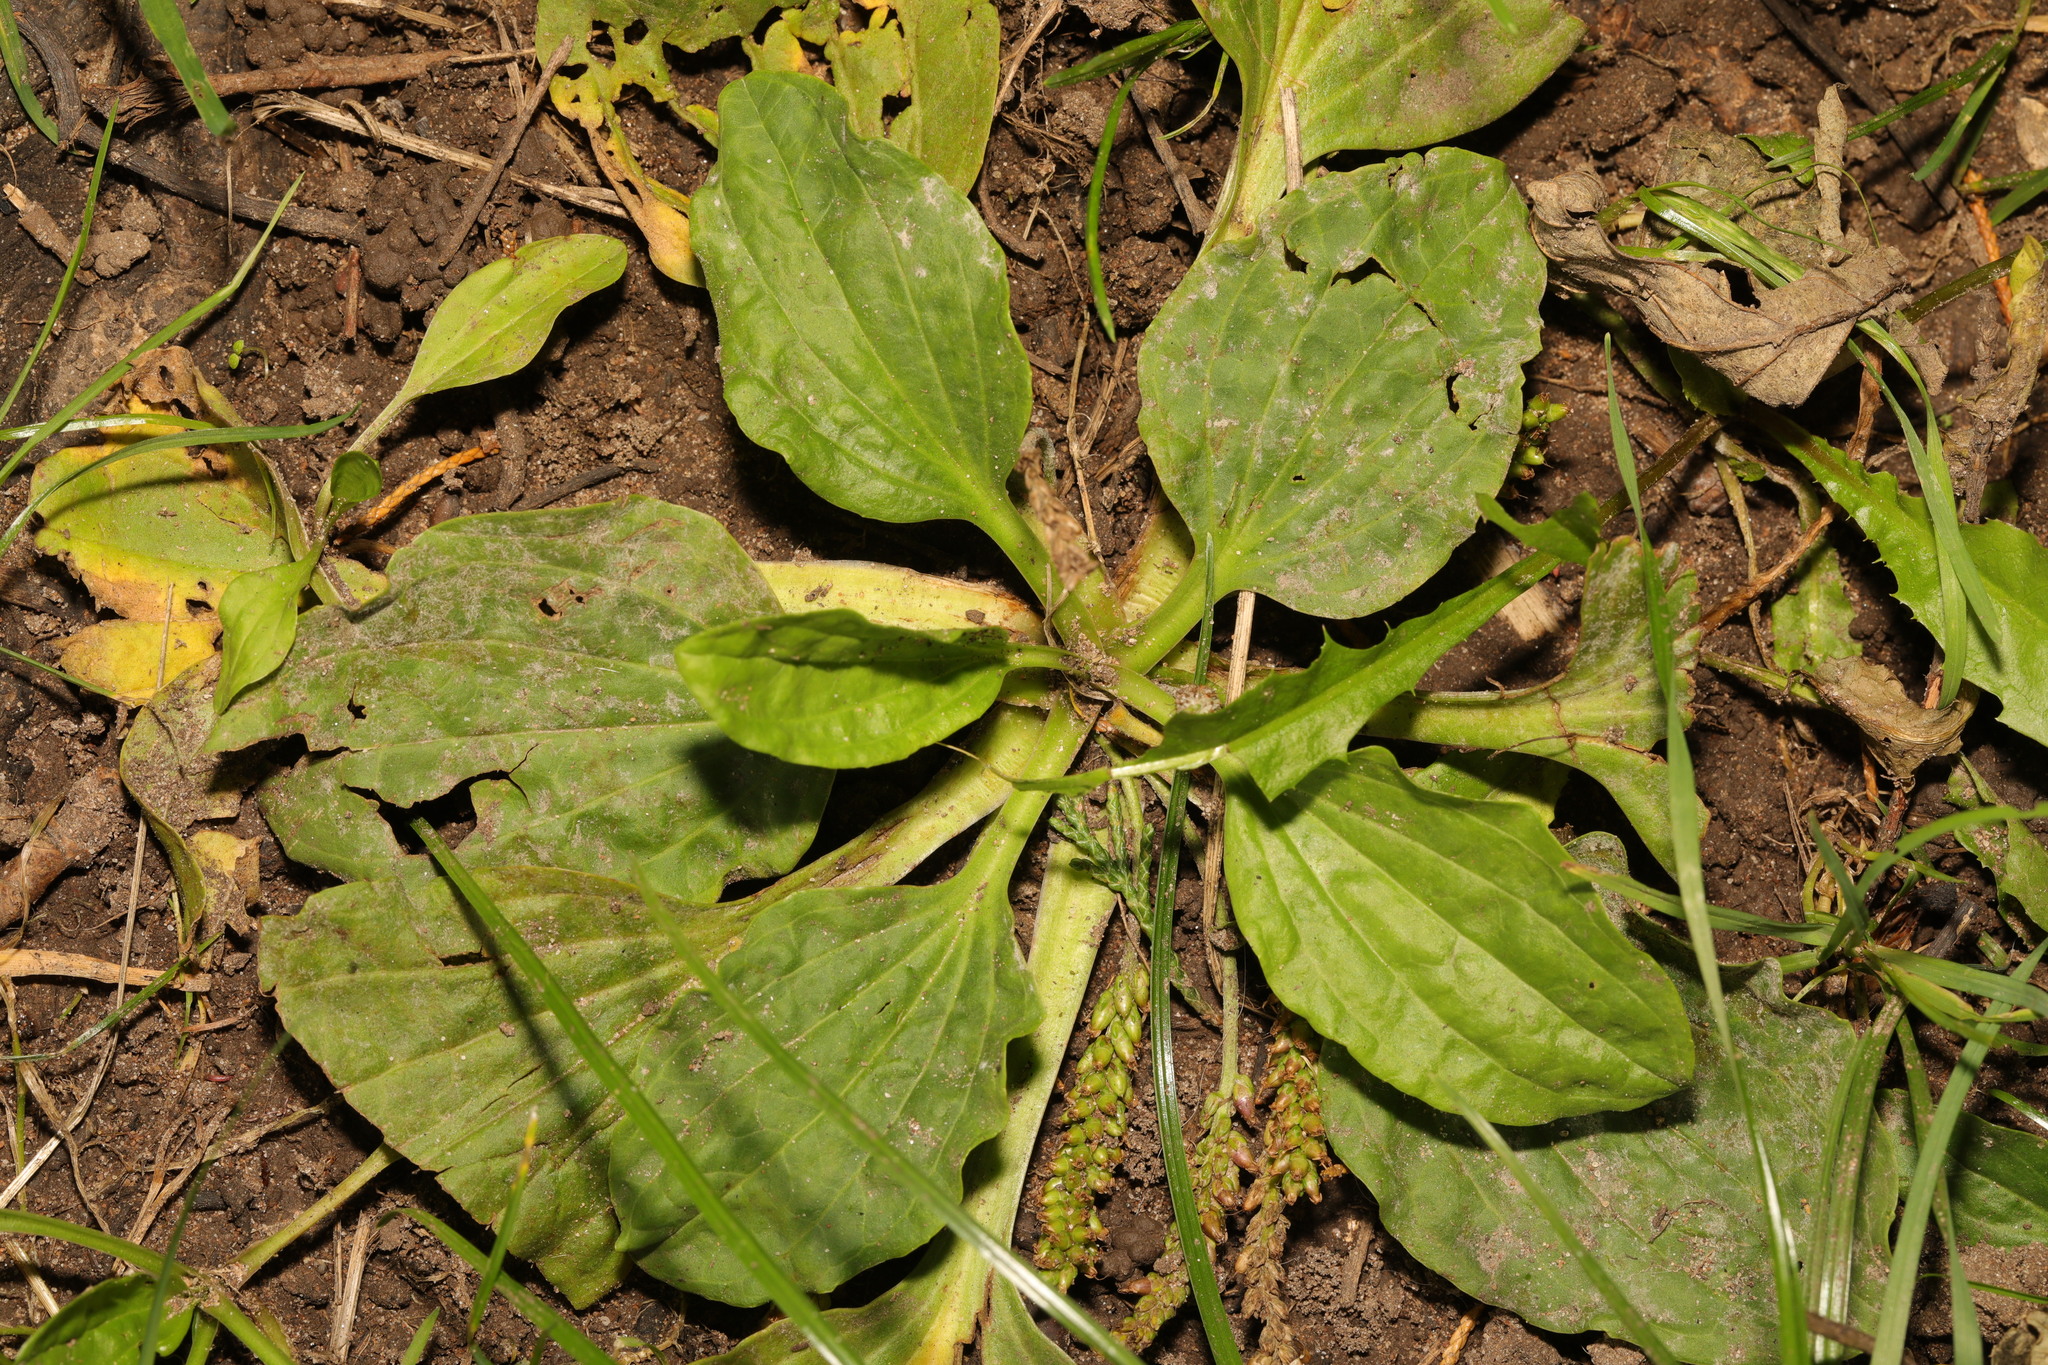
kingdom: Plantae
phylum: Tracheophyta
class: Magnoliopsida
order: Lamiales
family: Plantaginaceae
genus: Plantago
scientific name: Plantago major
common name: Common plantain
